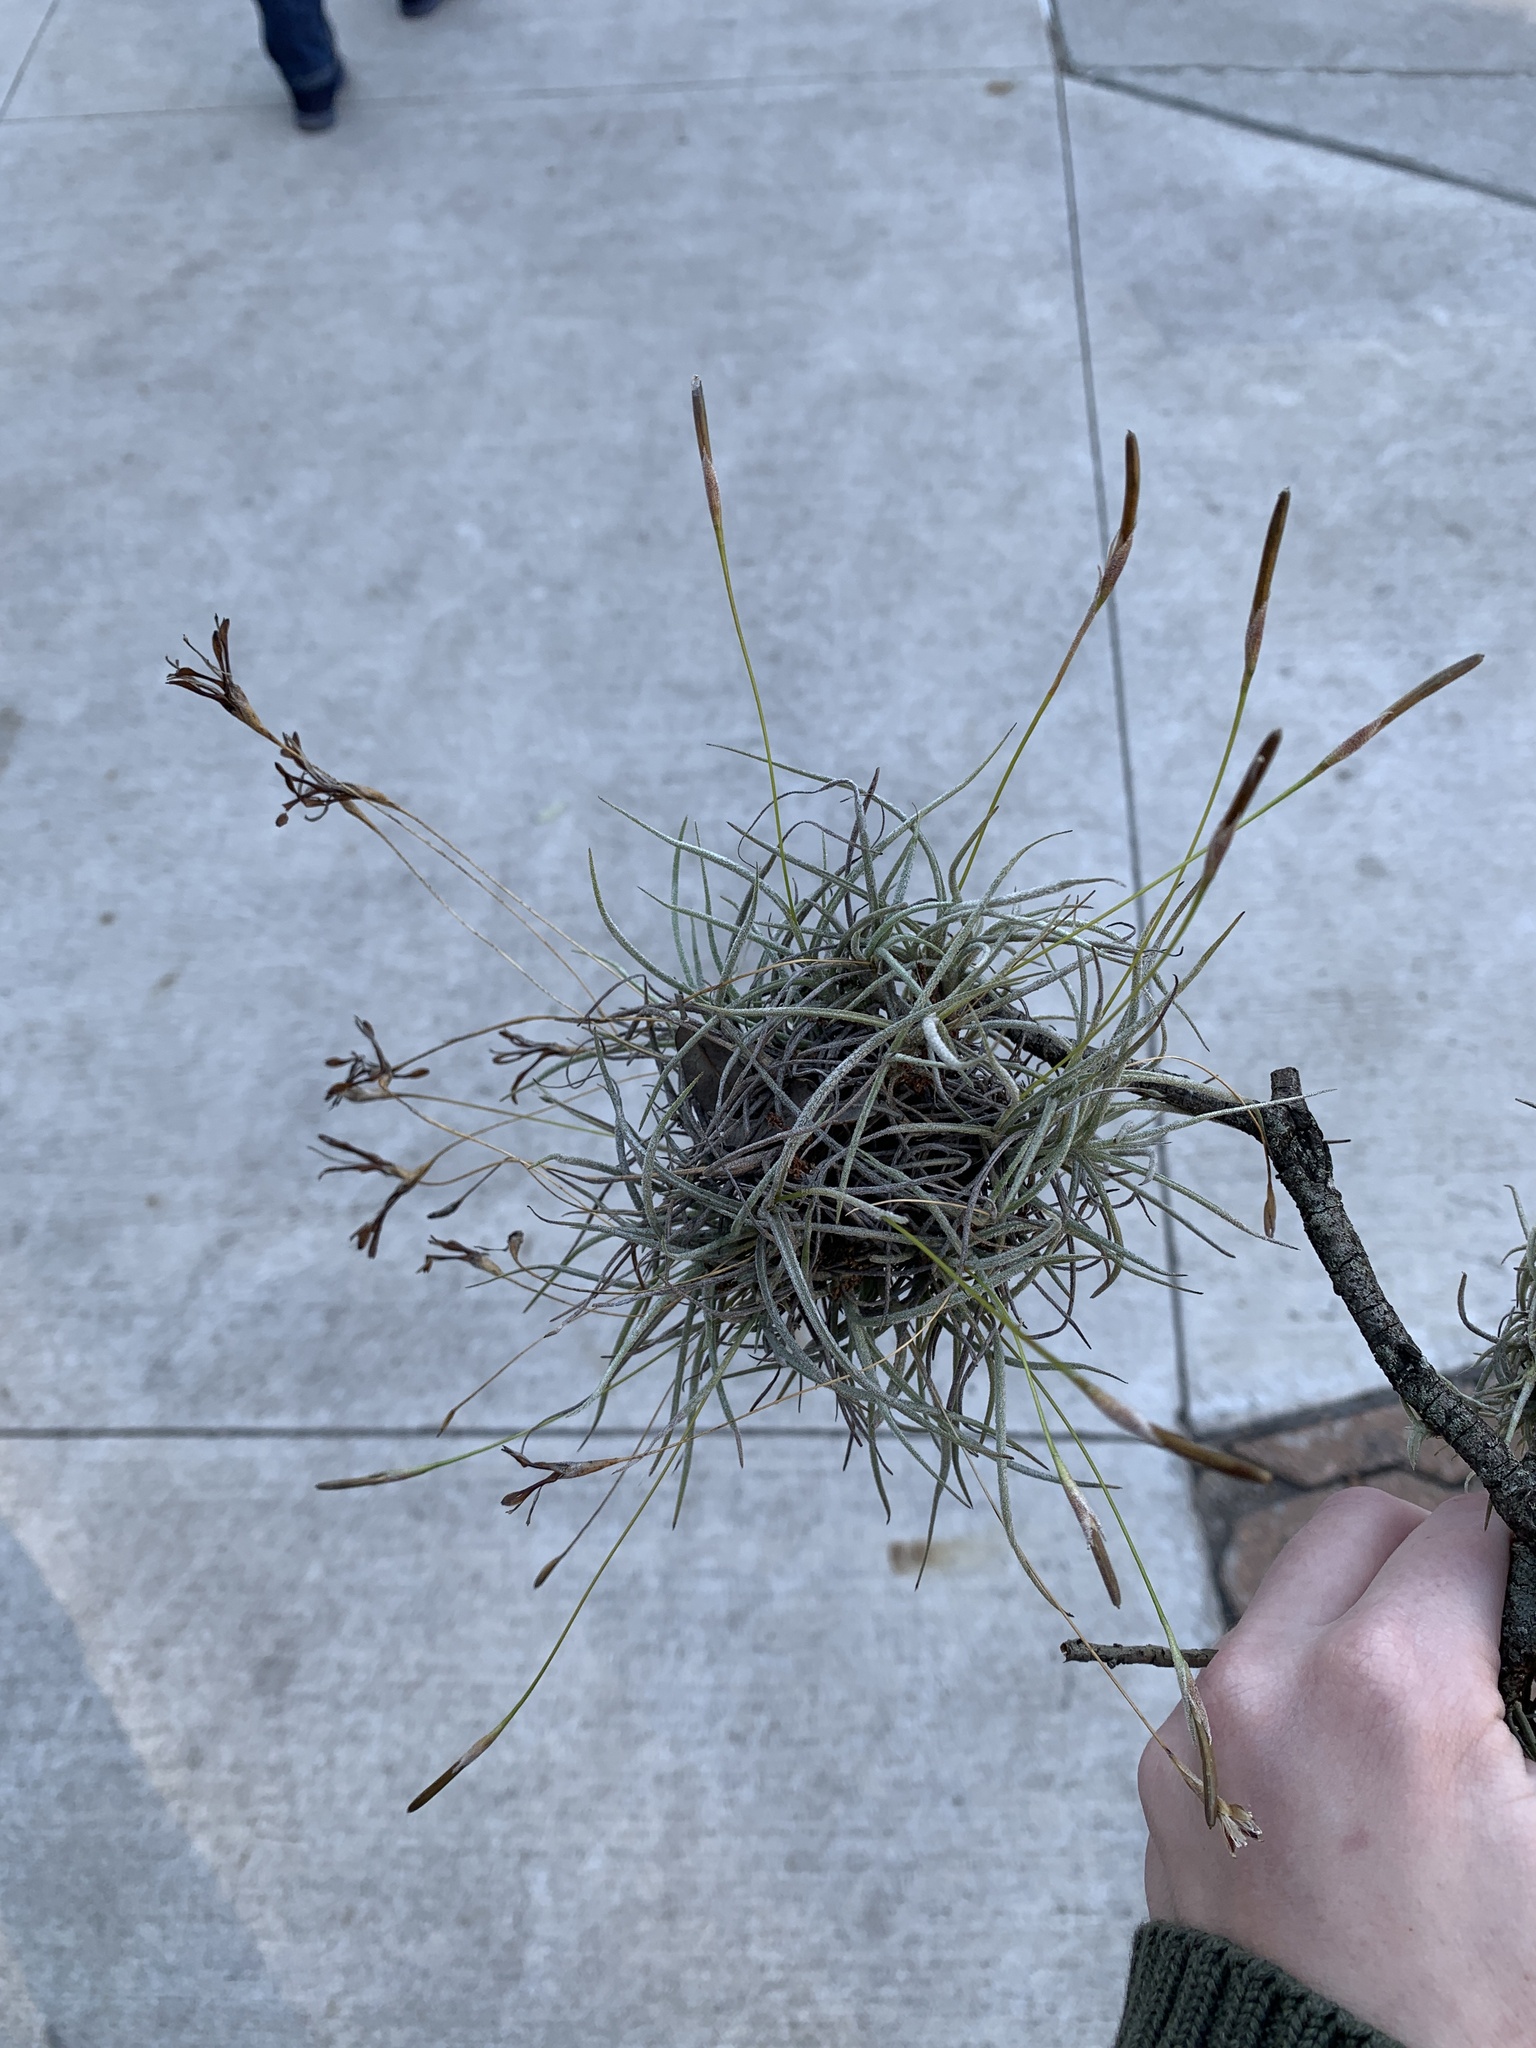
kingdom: Plantae
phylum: Tracheophyta
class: Liliopsida
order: Poales
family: Bromeliaceae
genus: Tillandsia
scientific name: Tillandsia recurvata
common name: Small ballmoss
